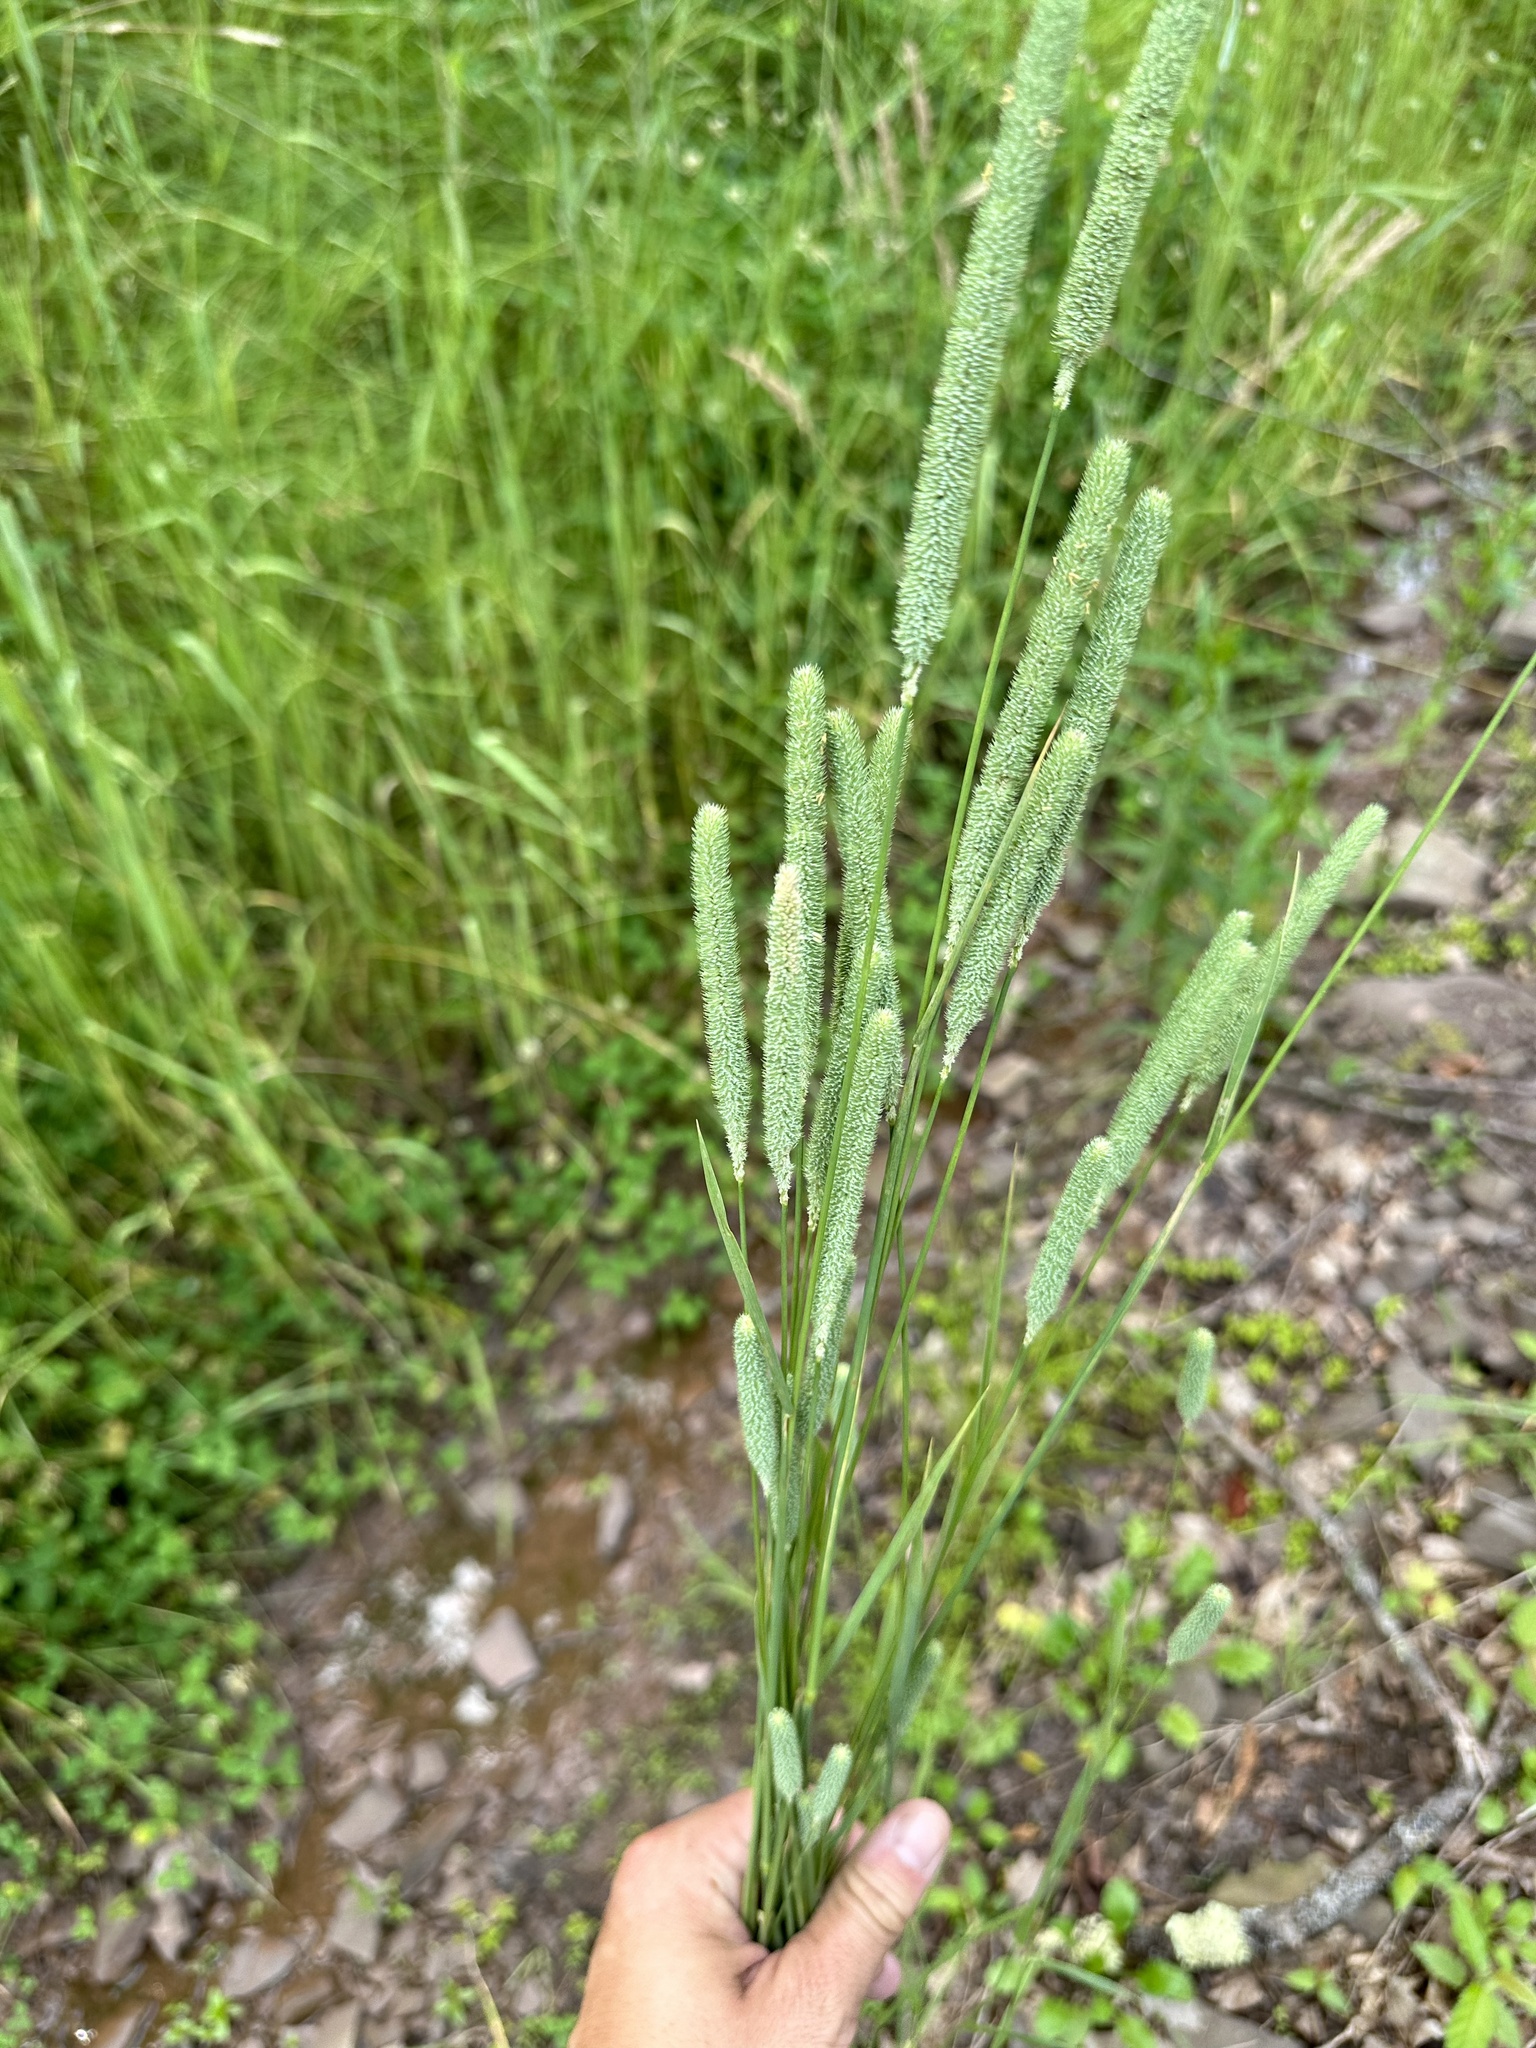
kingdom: Plantae
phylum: Tracheophyta
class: Liliopsida
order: Poales
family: Poaceae
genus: Phleum
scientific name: Phleum pratense
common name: Timothy grass
